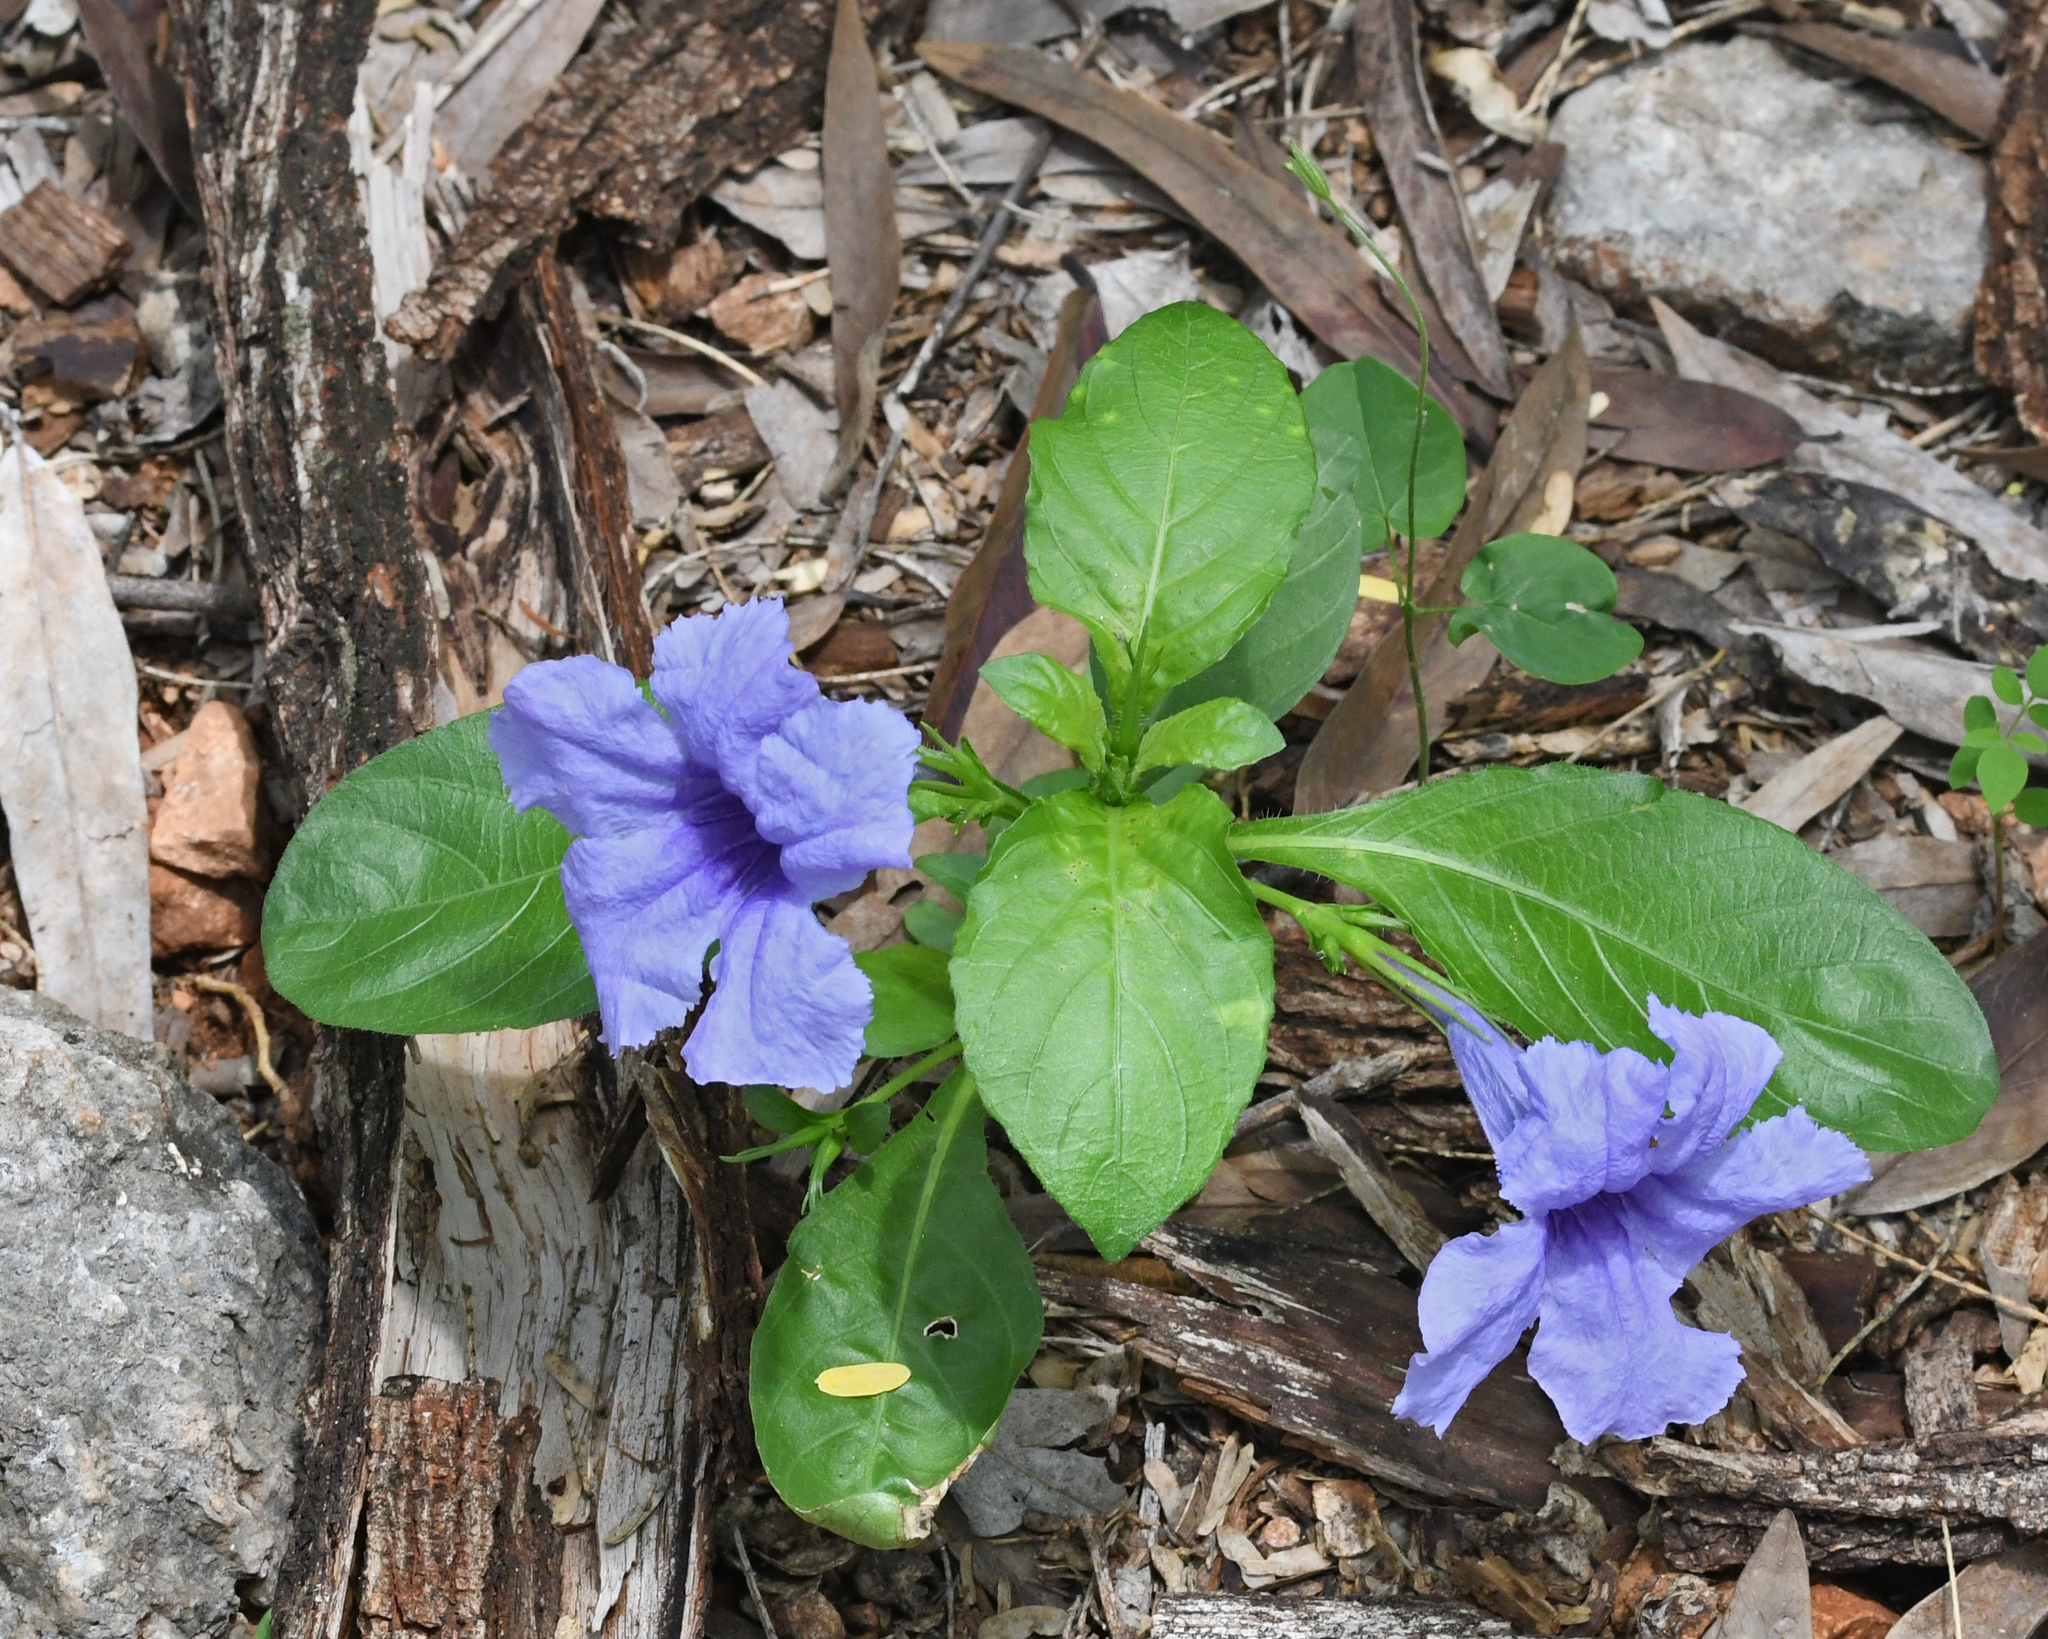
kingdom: Plantae
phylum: Tracheophyta
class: Magnoliopsida
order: Lamiales
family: Acanthaceae
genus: Ruellia
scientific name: Ruellia tuberosa
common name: Devil's bit
